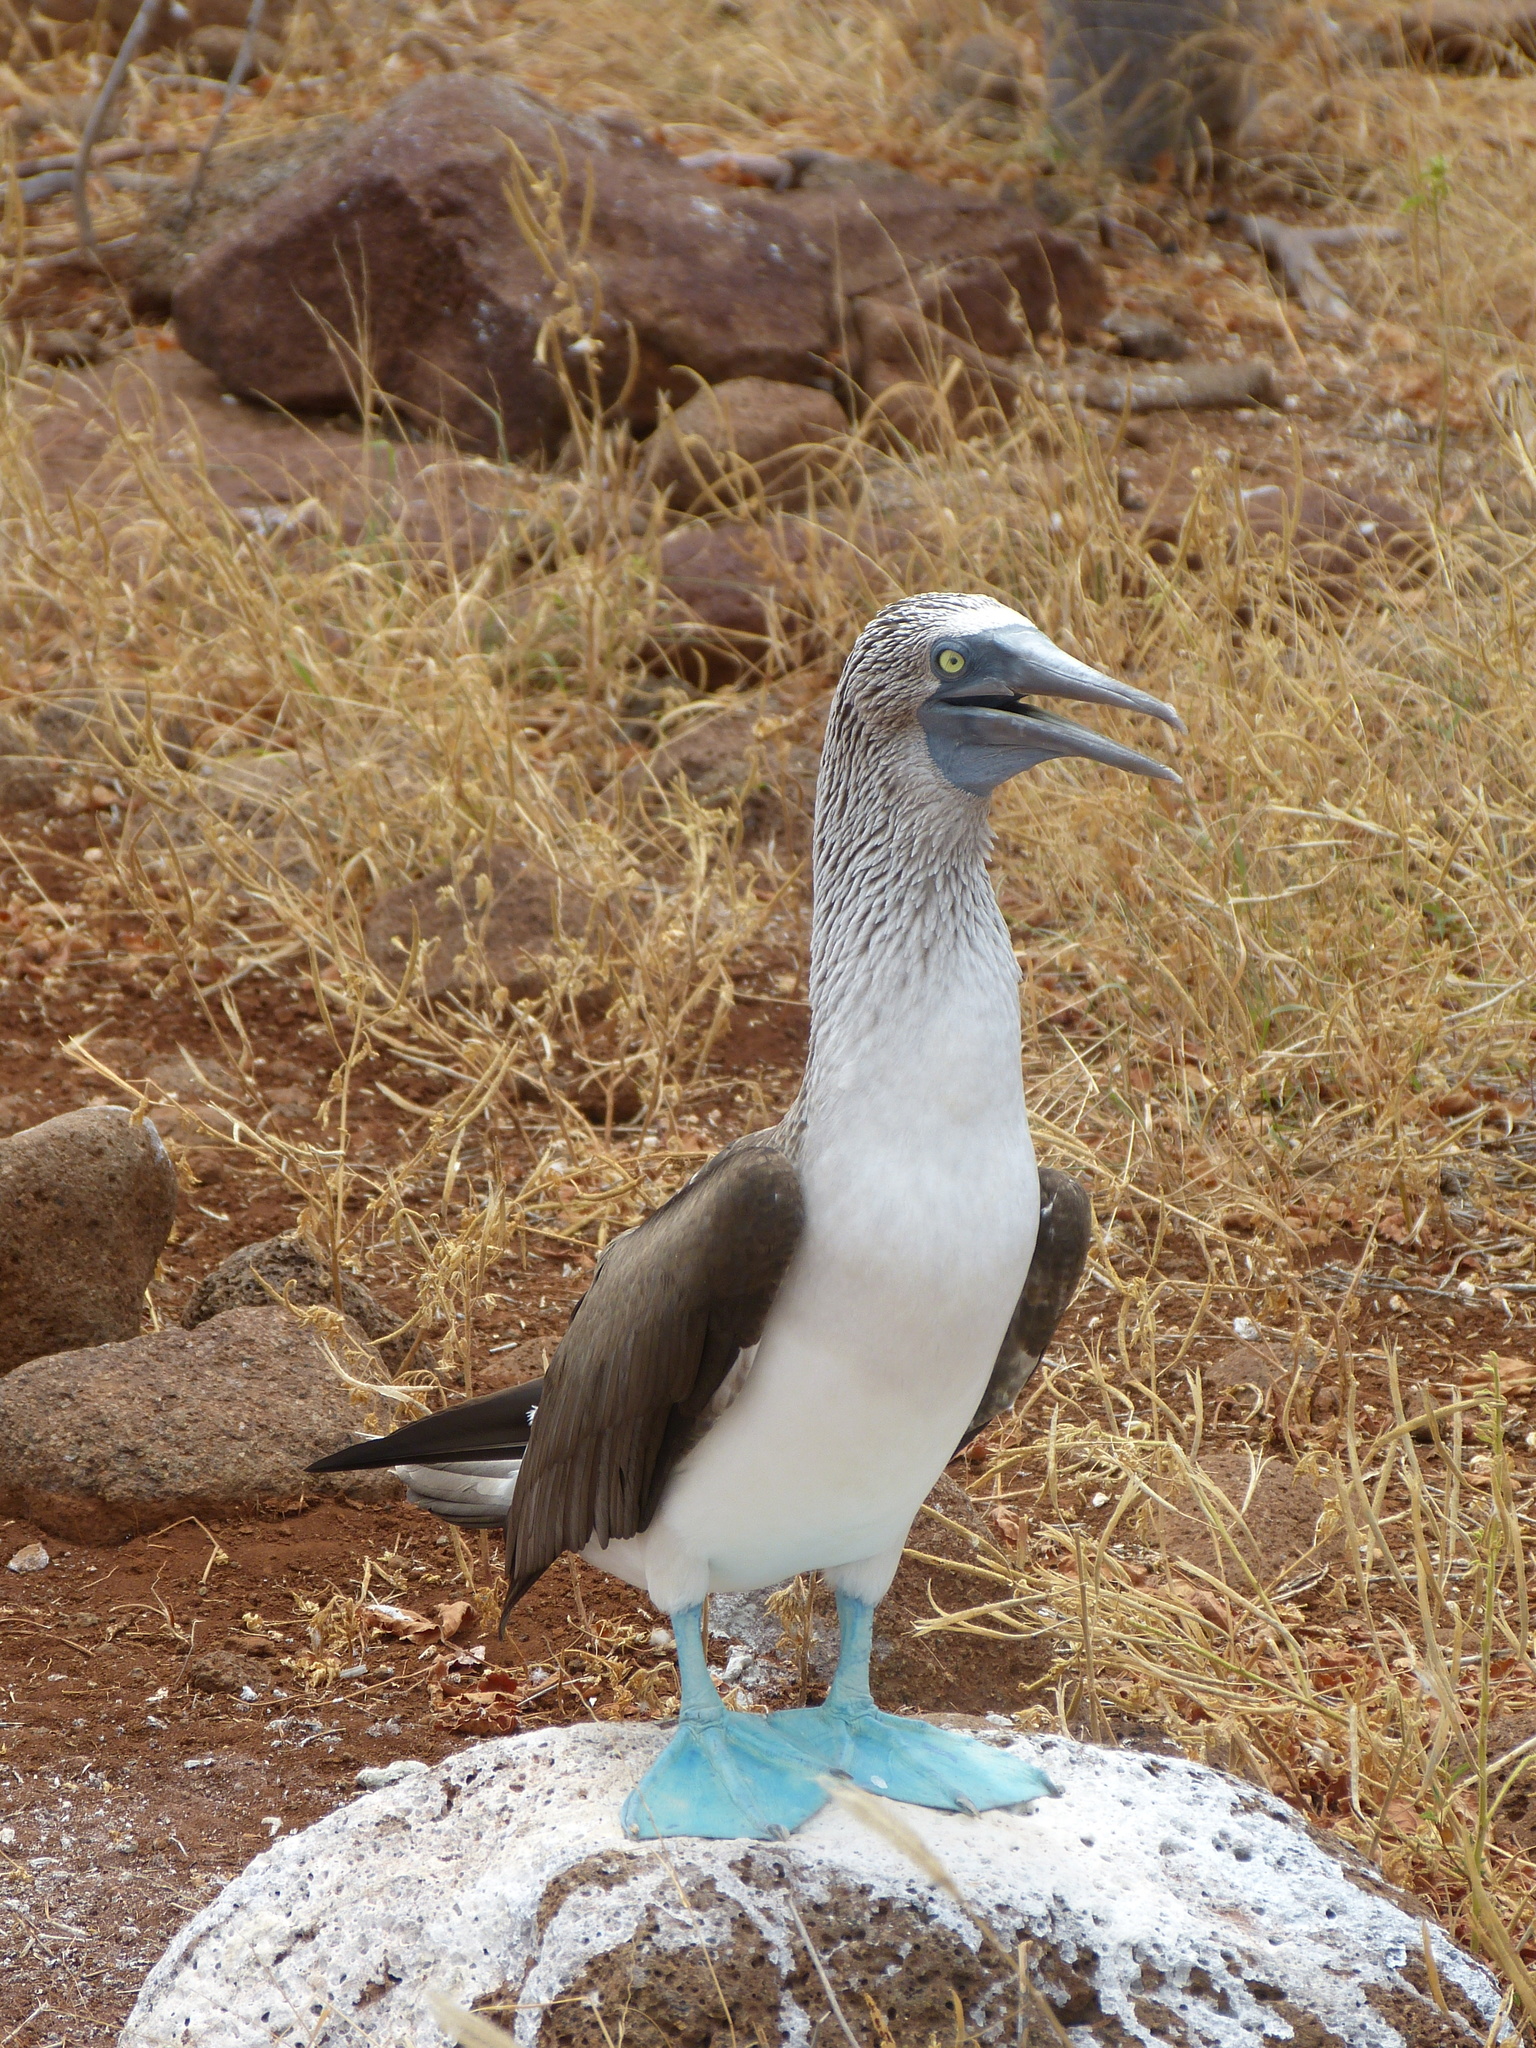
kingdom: Animalia
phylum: Chordata
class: Aves
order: Suliformes
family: Sulidae
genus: Sula
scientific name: Sula nebouxii
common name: Blue-footed booby
